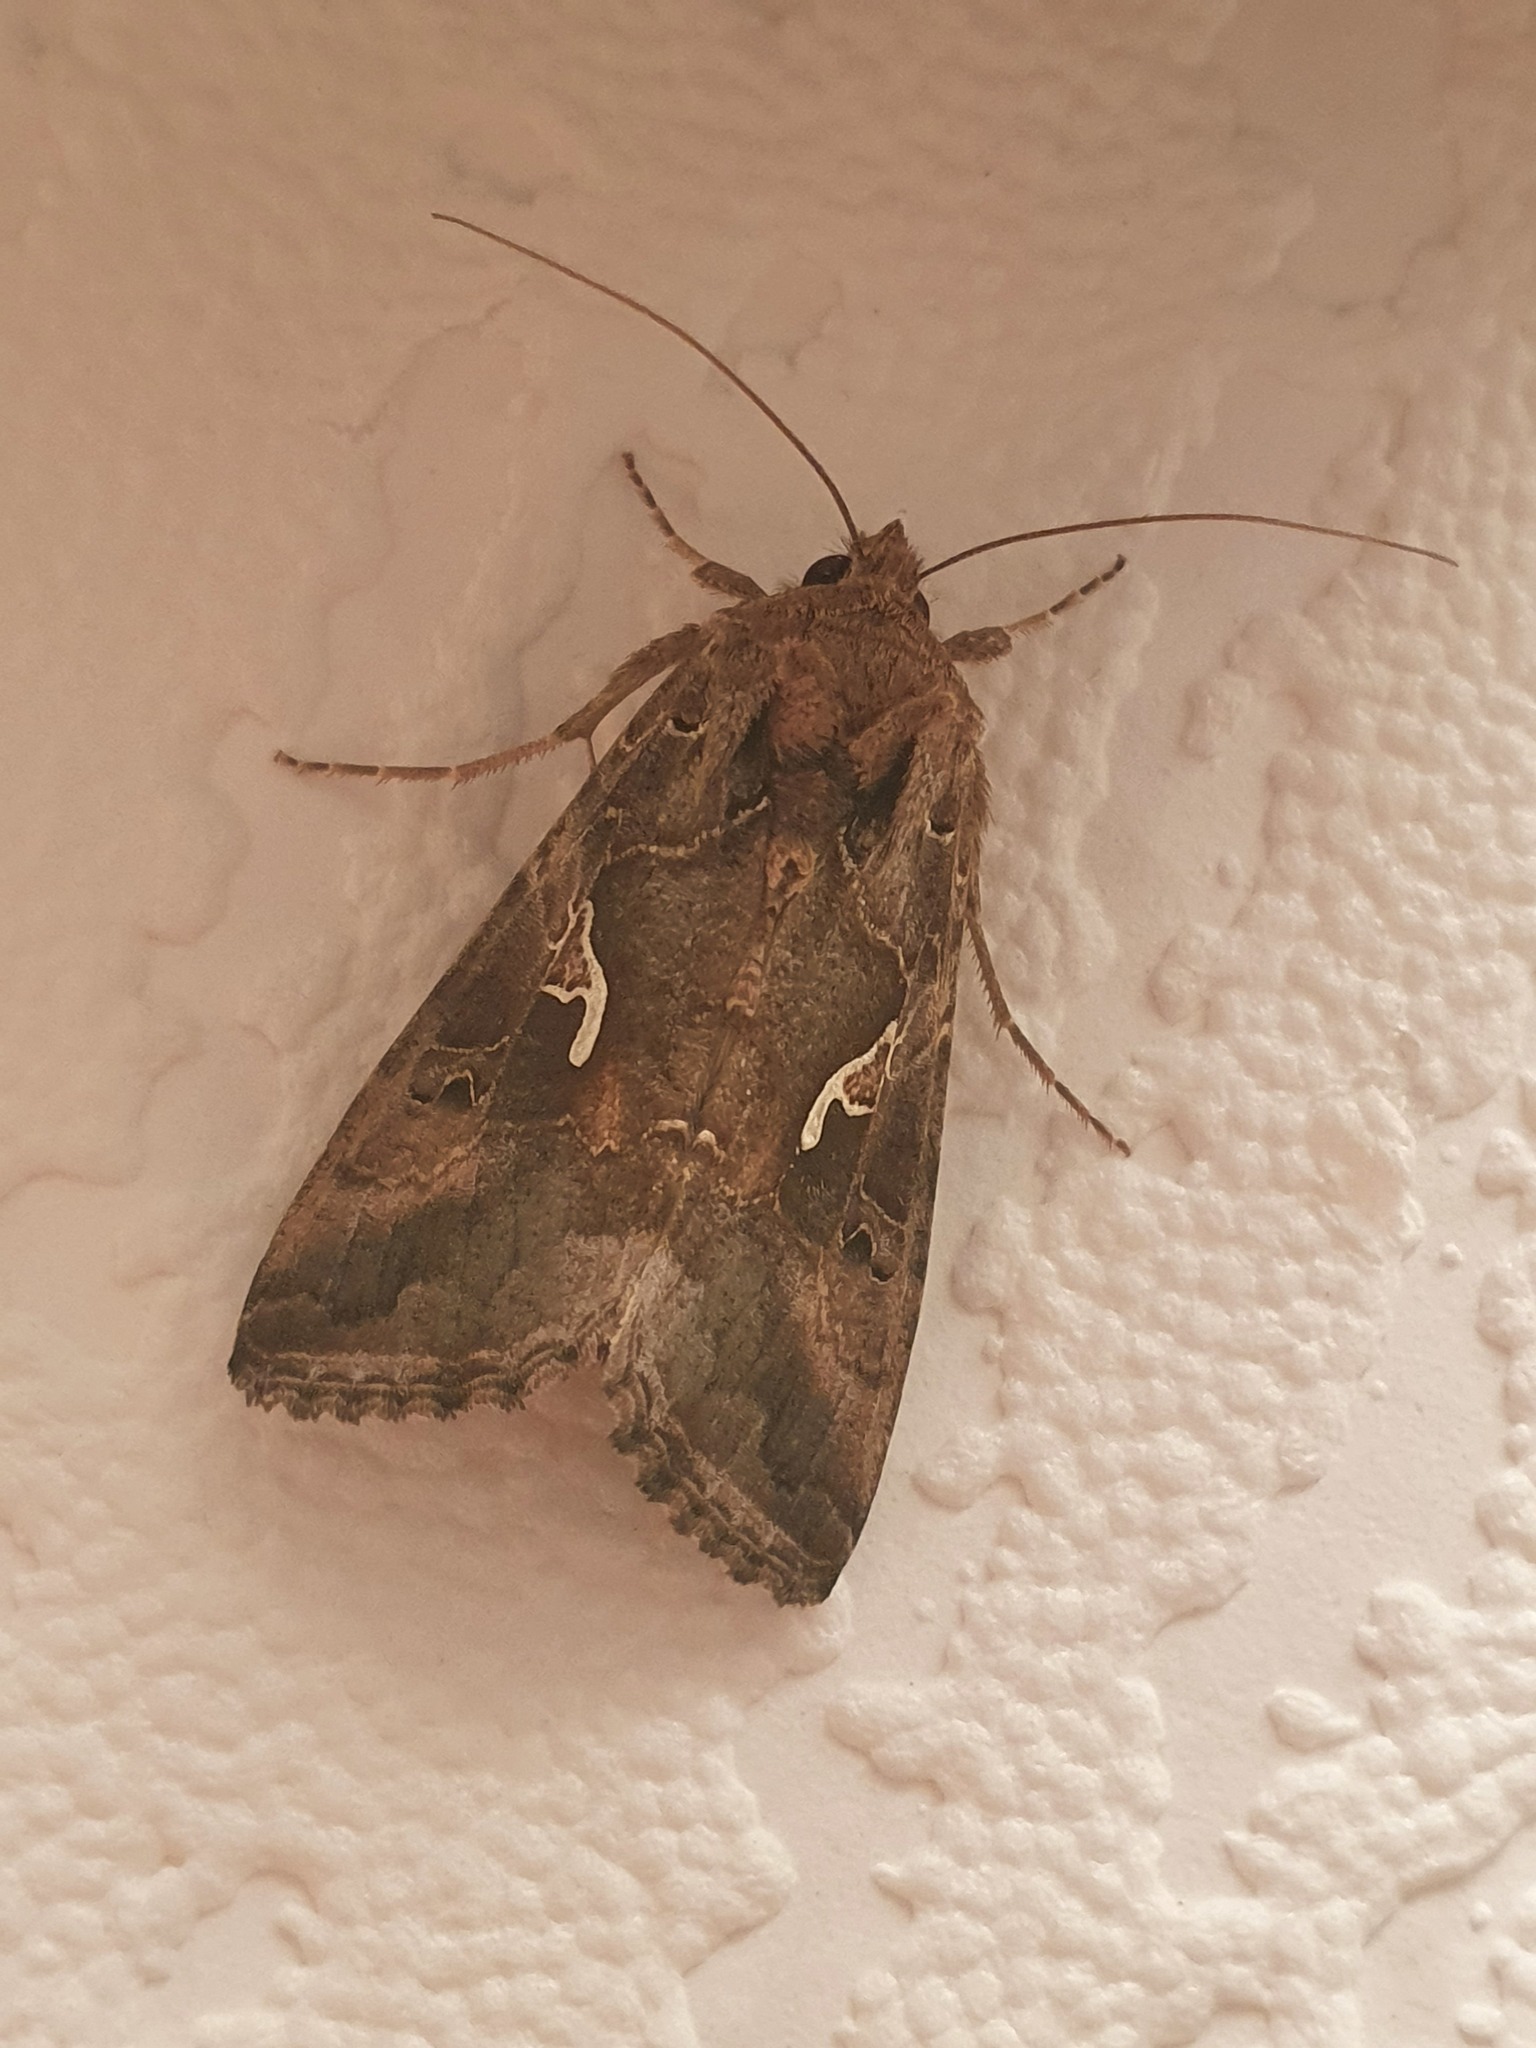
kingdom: Animalia
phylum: Arthropoda
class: Insecta
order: Lepidoptera
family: Noctuidae
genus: Autographa
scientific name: Autographa gamma
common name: Silver y
